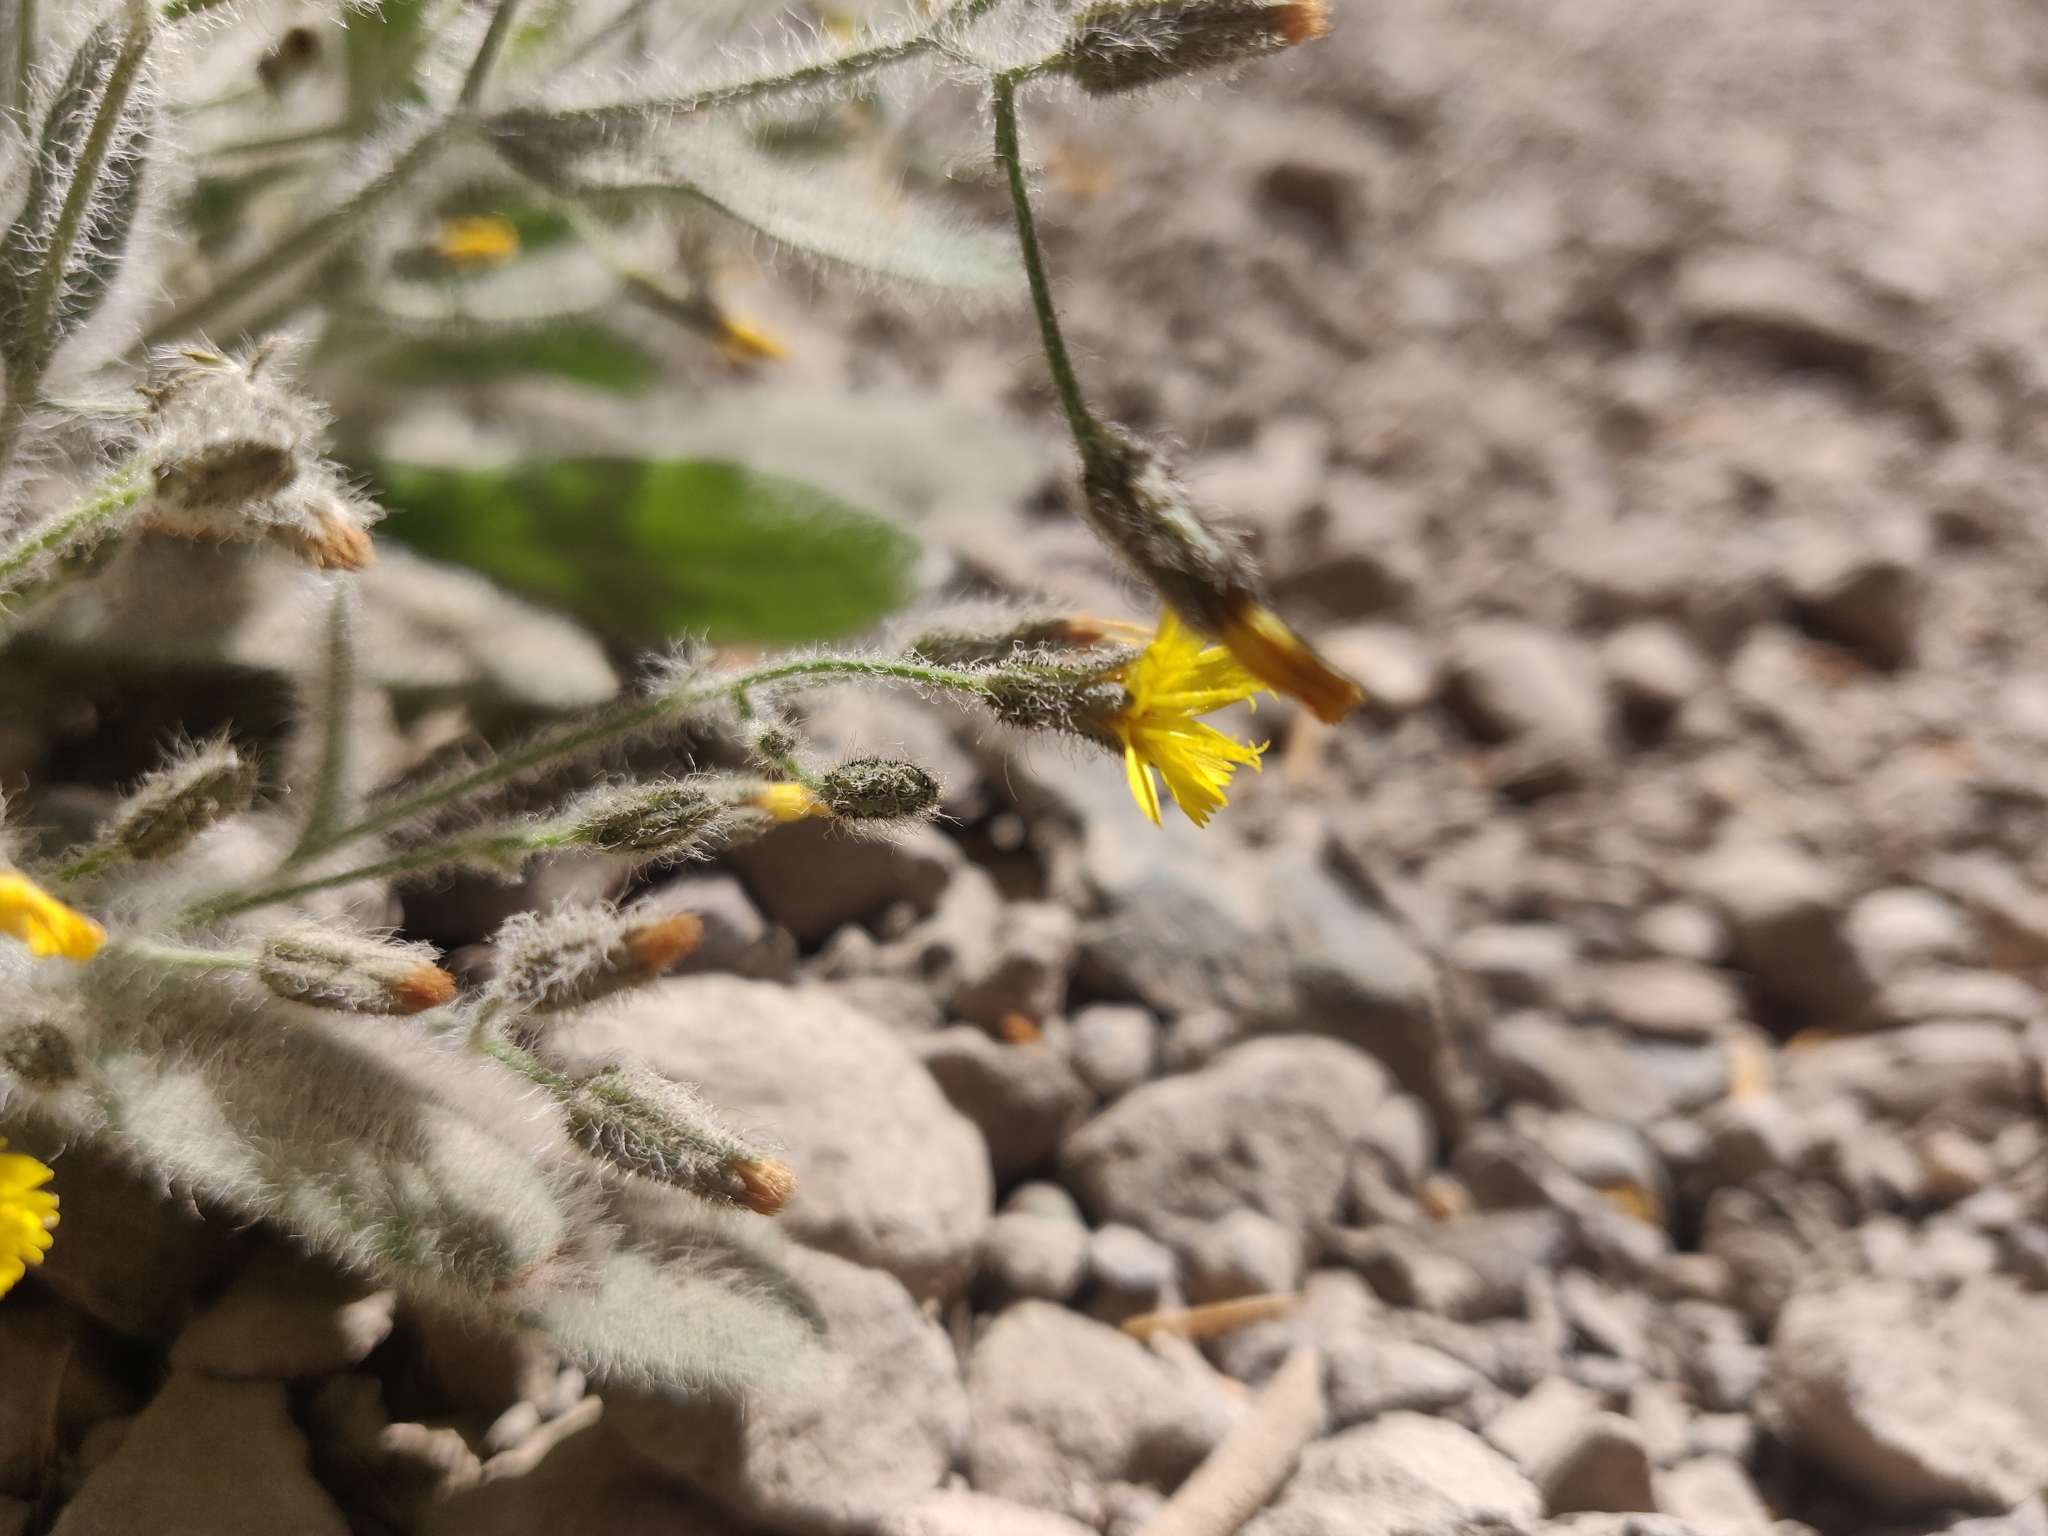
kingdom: Plantae
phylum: Tracheophyta
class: Magnoliopsida
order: Asterales
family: Asteraceae
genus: Hieracium
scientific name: Hieracium horridum
